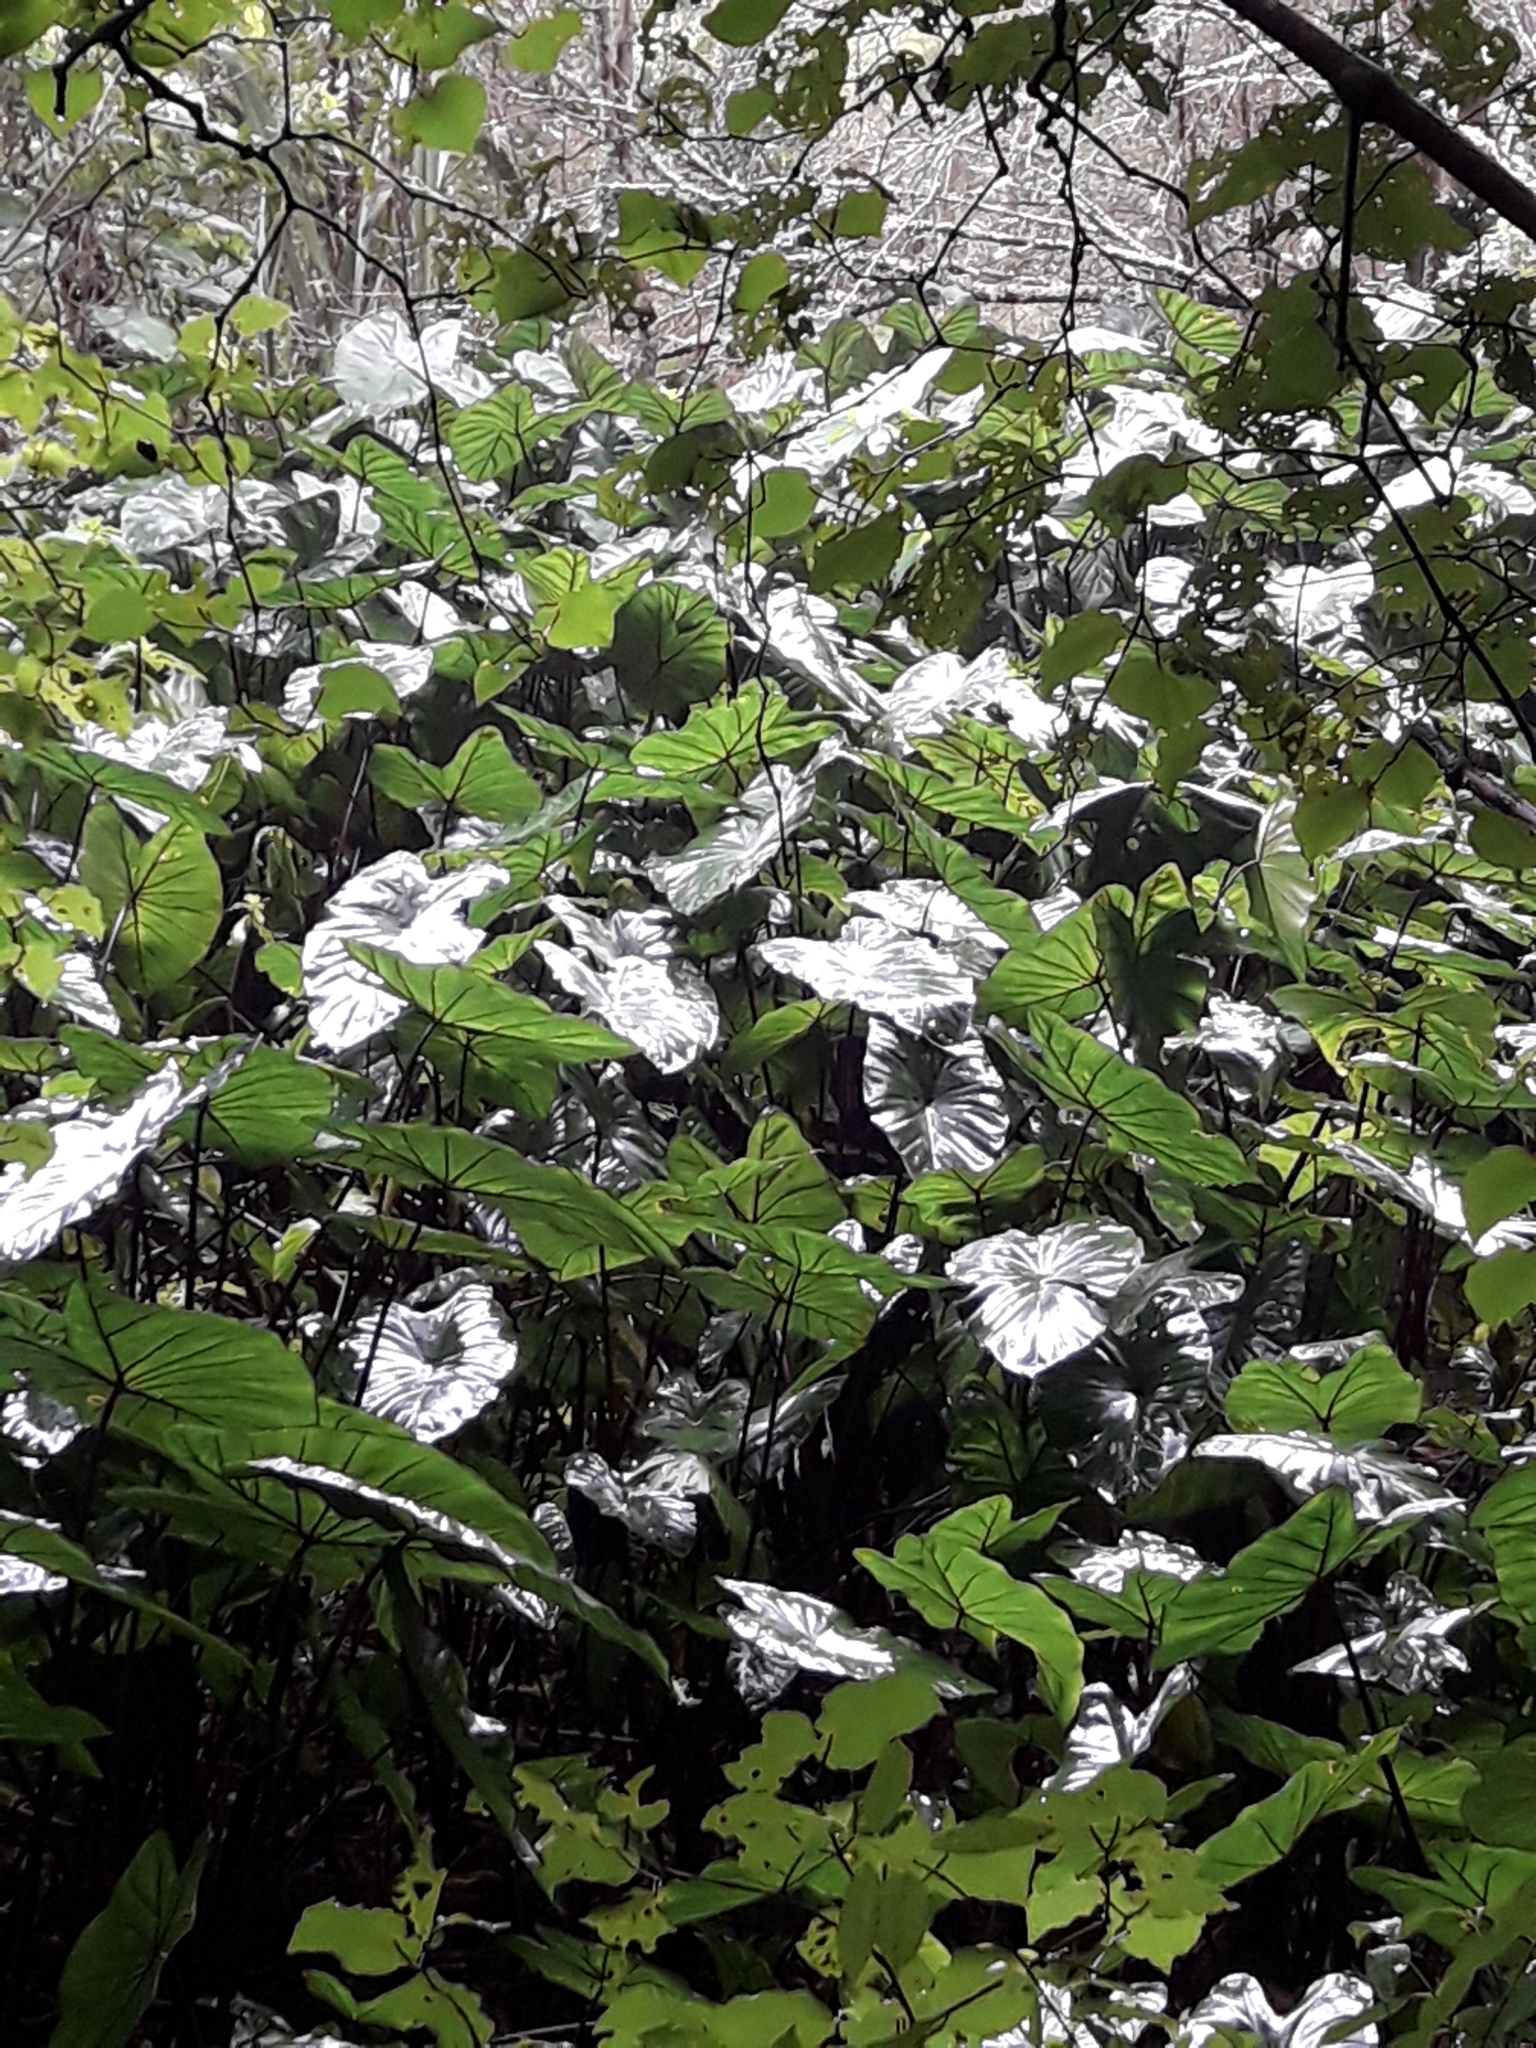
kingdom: Plantae
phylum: Tracheophyta
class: Liliopsida
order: Alismatales
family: Araceae
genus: Colocasia
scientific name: Colocasia esculenta
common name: Taro
